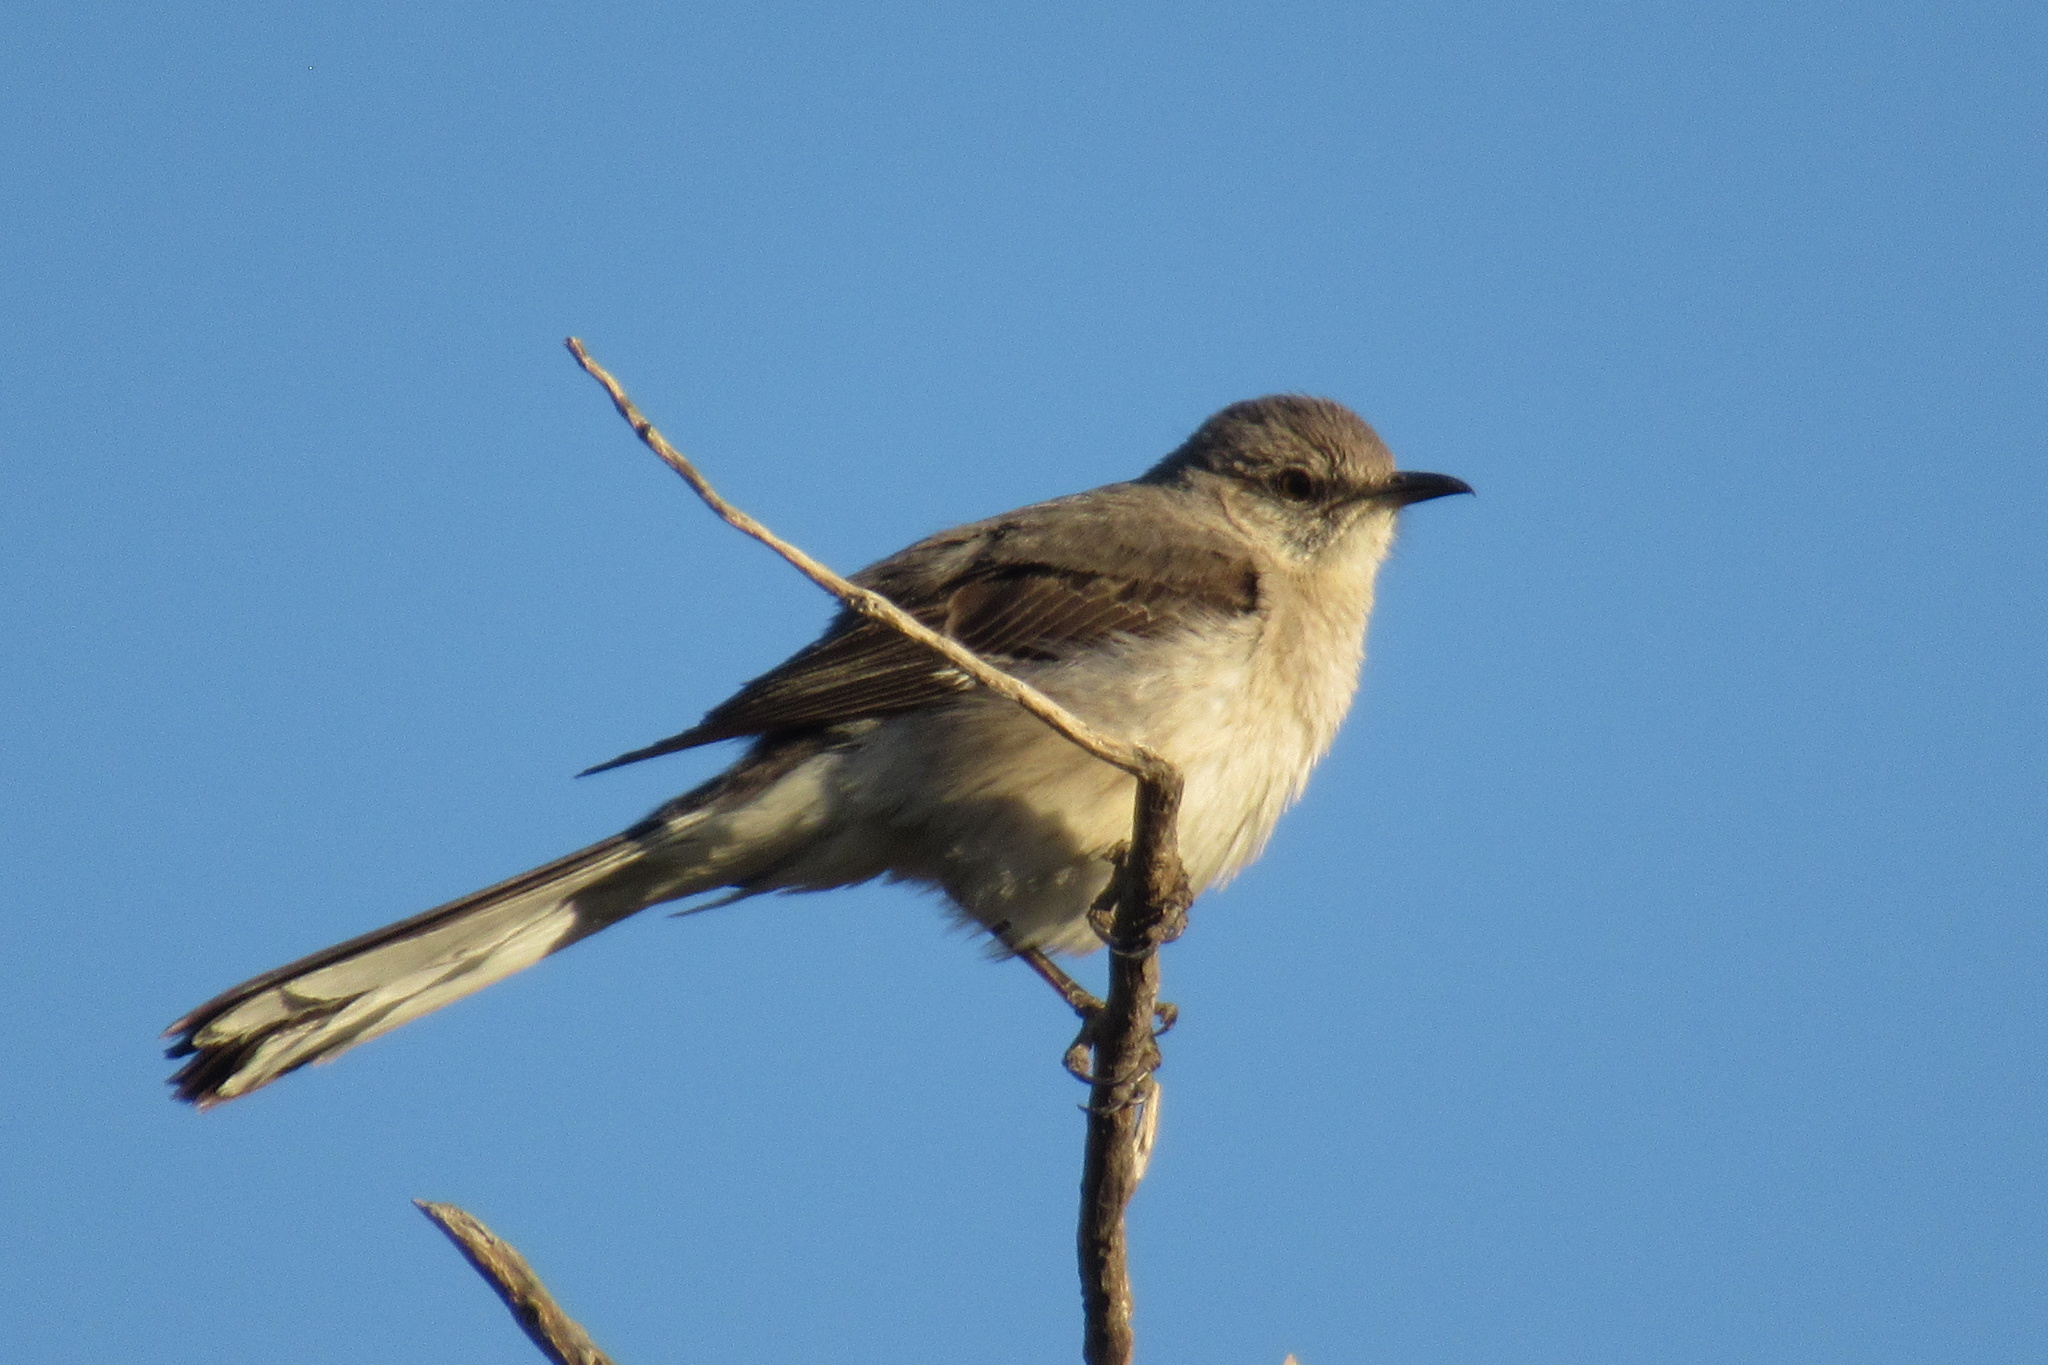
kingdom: Animalia
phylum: Chordata
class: Aves
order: Passeriformes
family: Mimidae
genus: Mimus
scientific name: Mimus polyglottos
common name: Northern mockingbird
